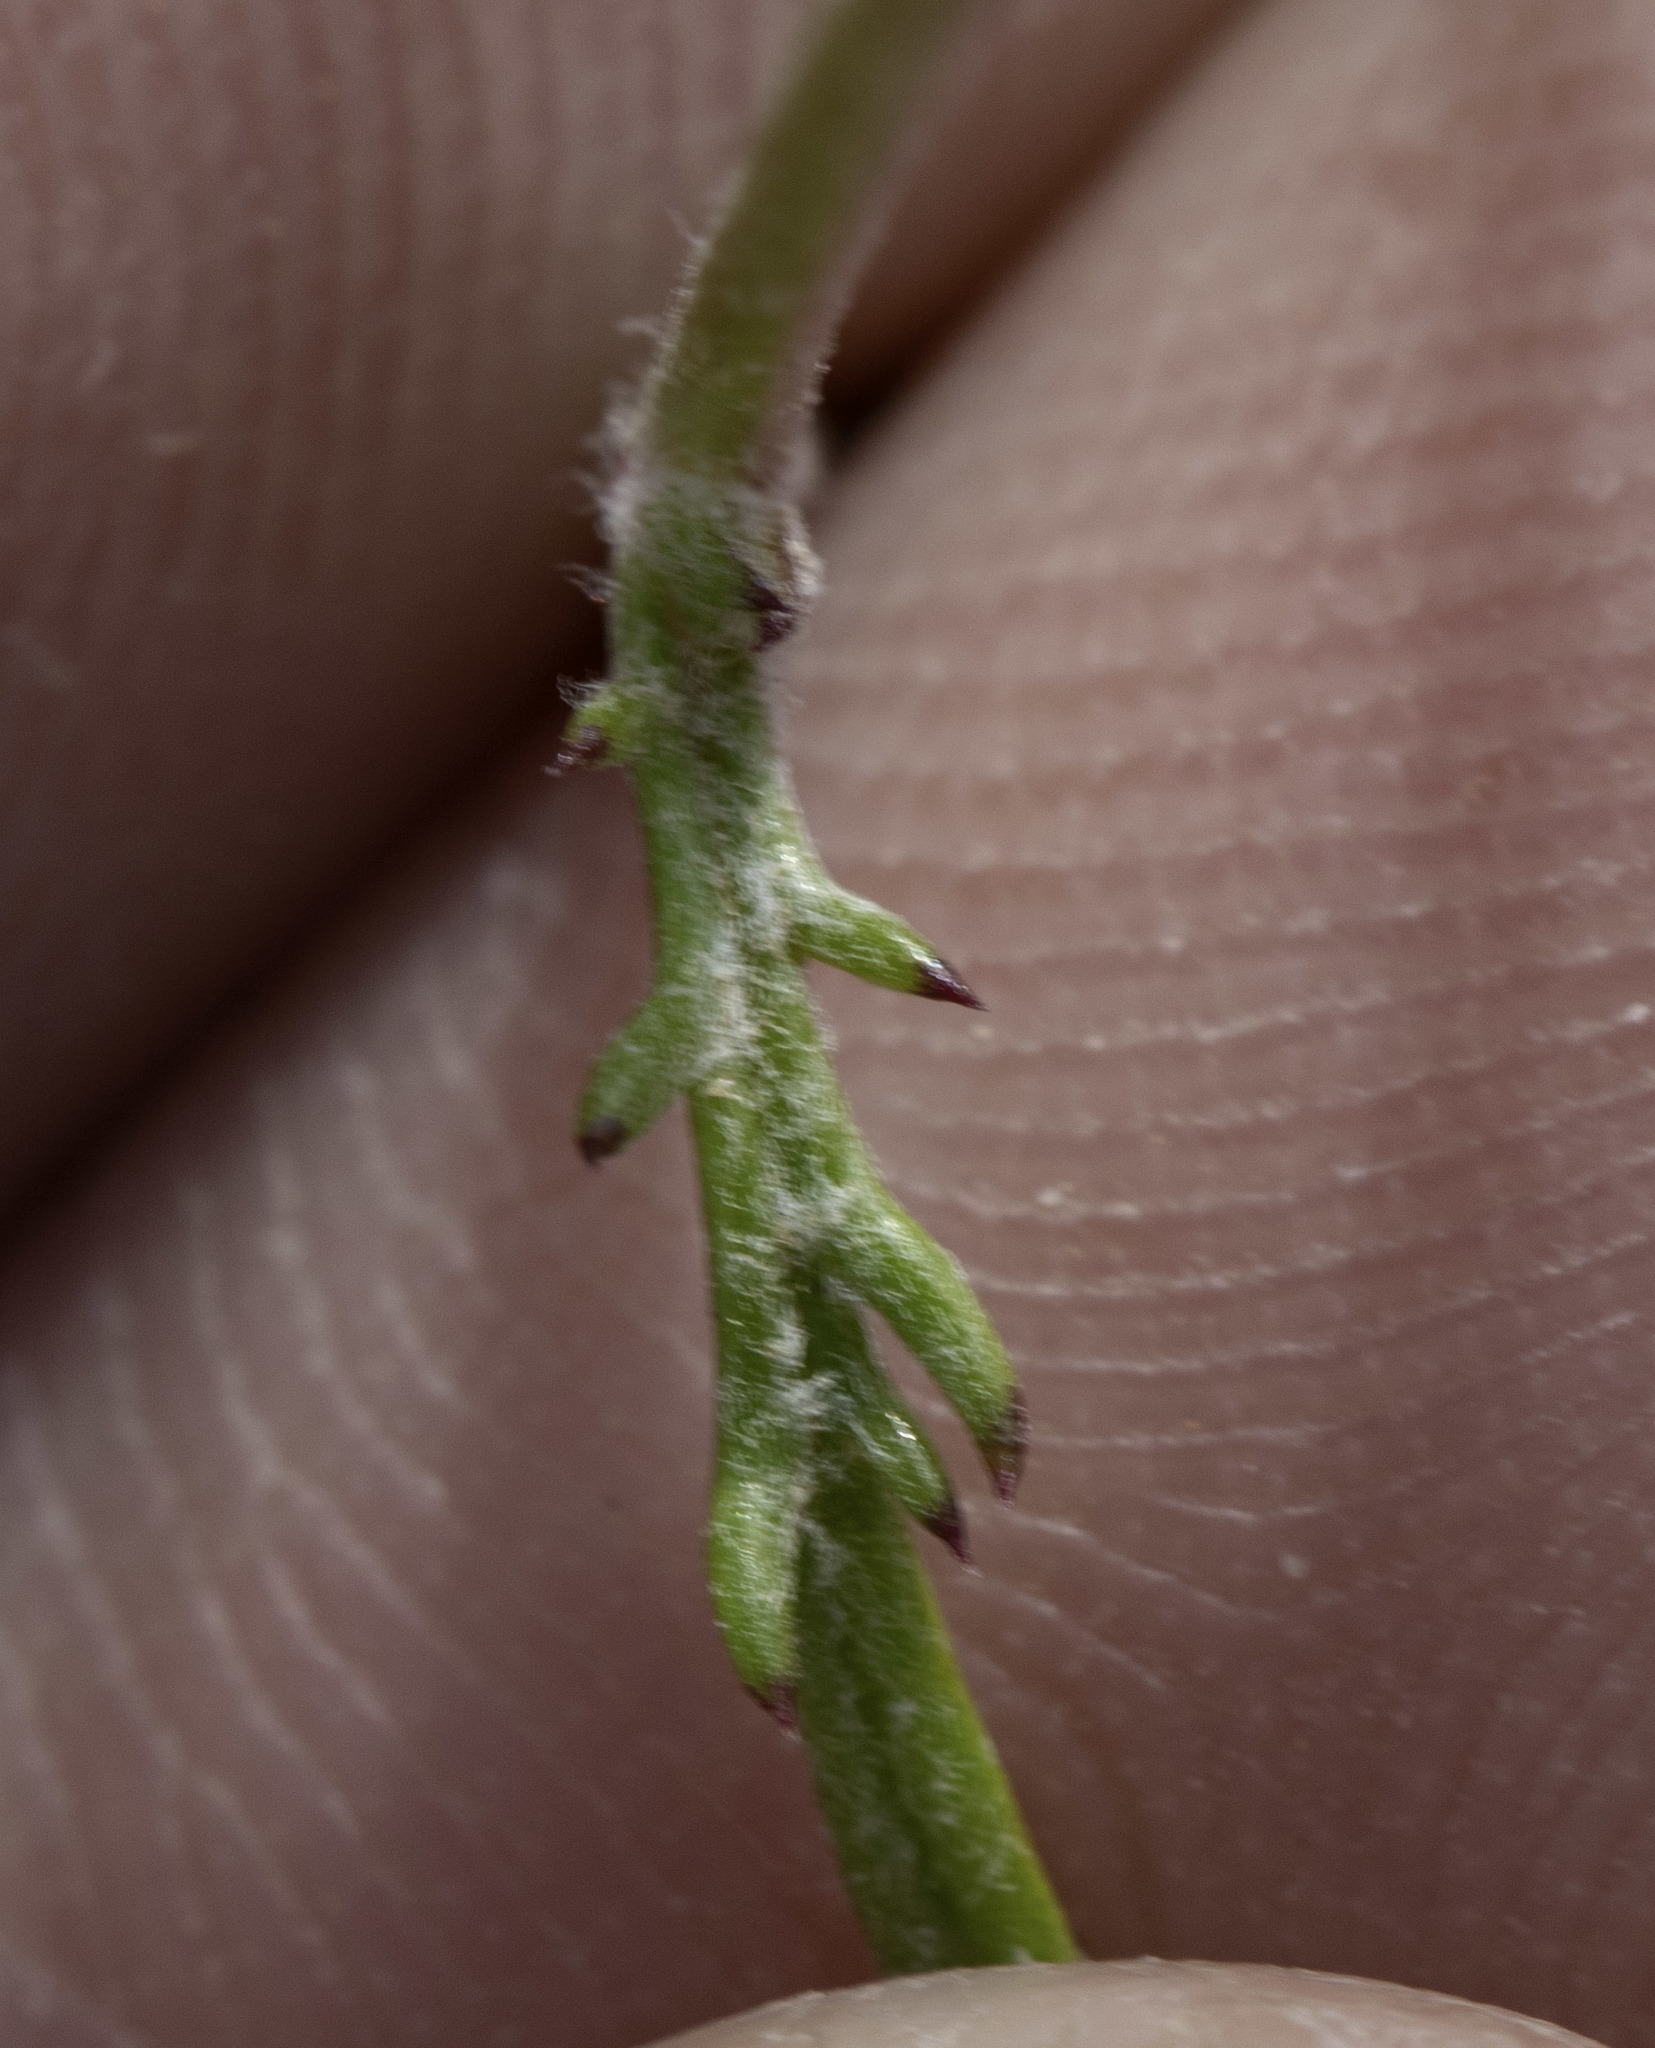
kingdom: Plantae
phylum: Tracheophyta
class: Magnoliopsida
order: Ericales
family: Polemoniaceae
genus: Gilia
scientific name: Gilia minor
